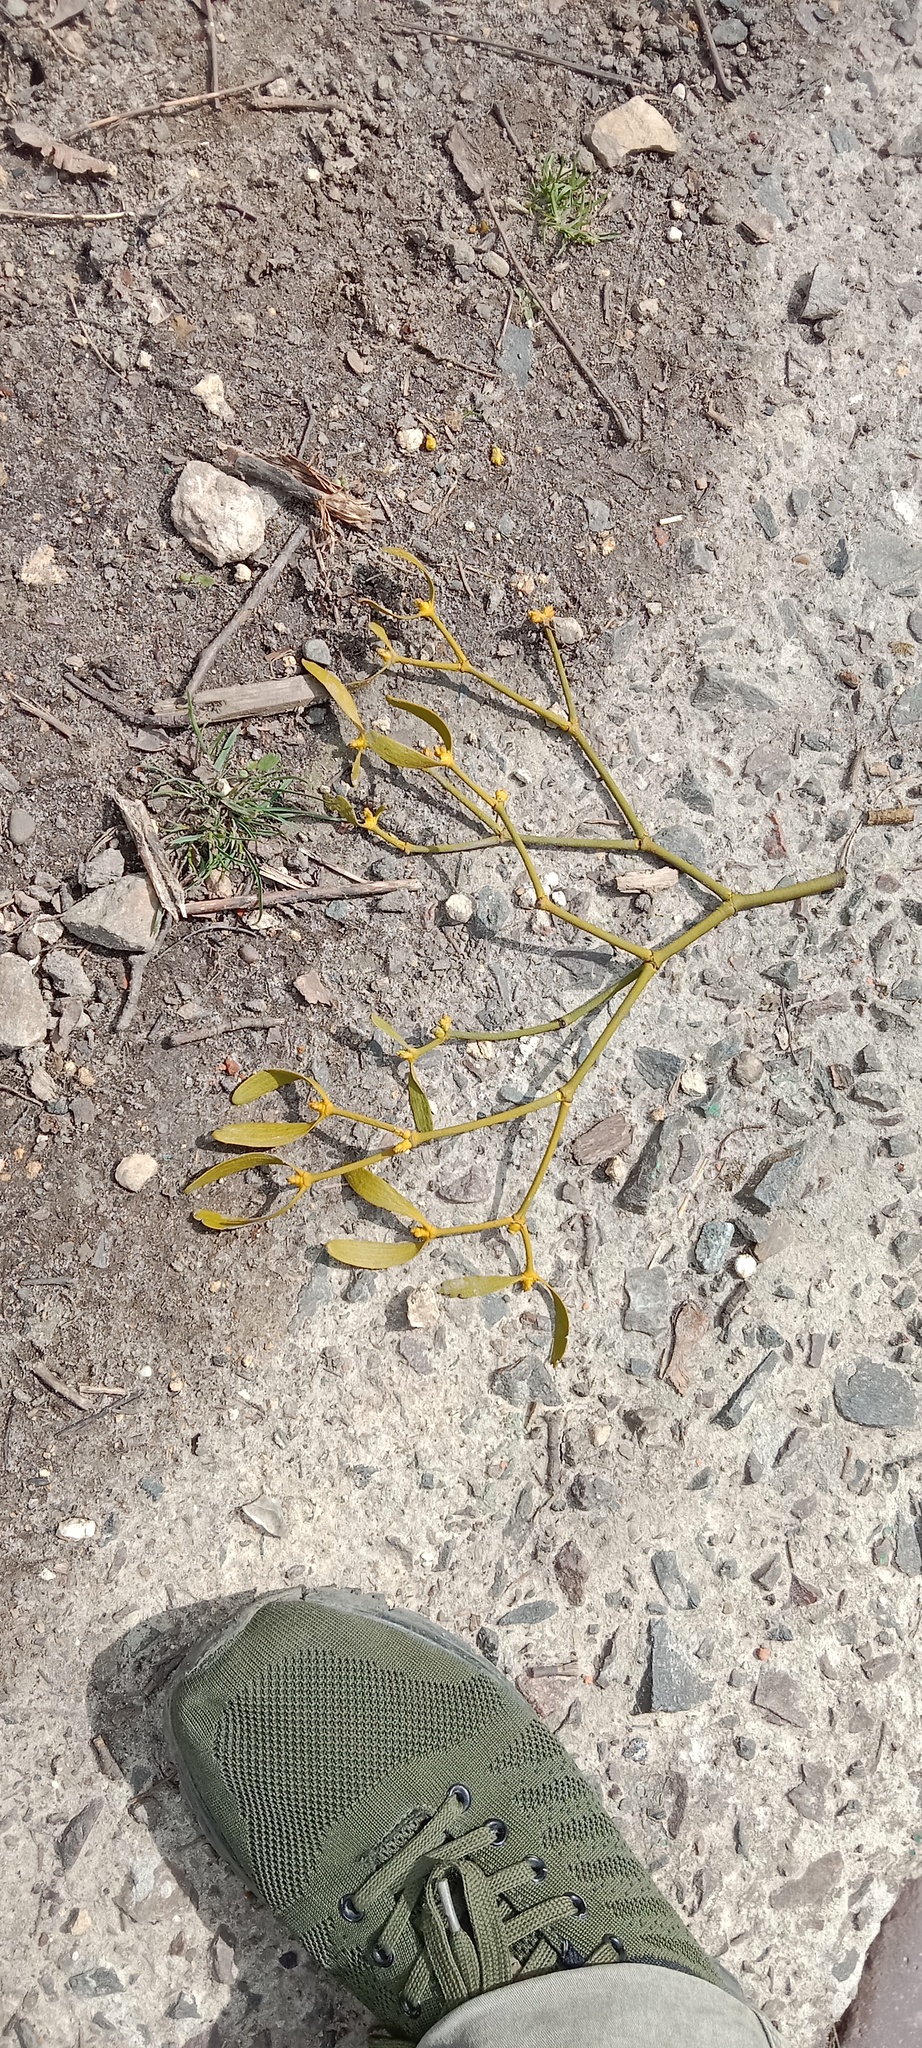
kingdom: Plantae
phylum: Tracheophyta
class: Magnoliopsida
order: Santalales
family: Viscaceae
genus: Viscum
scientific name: Viscum album
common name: Mistletoe
